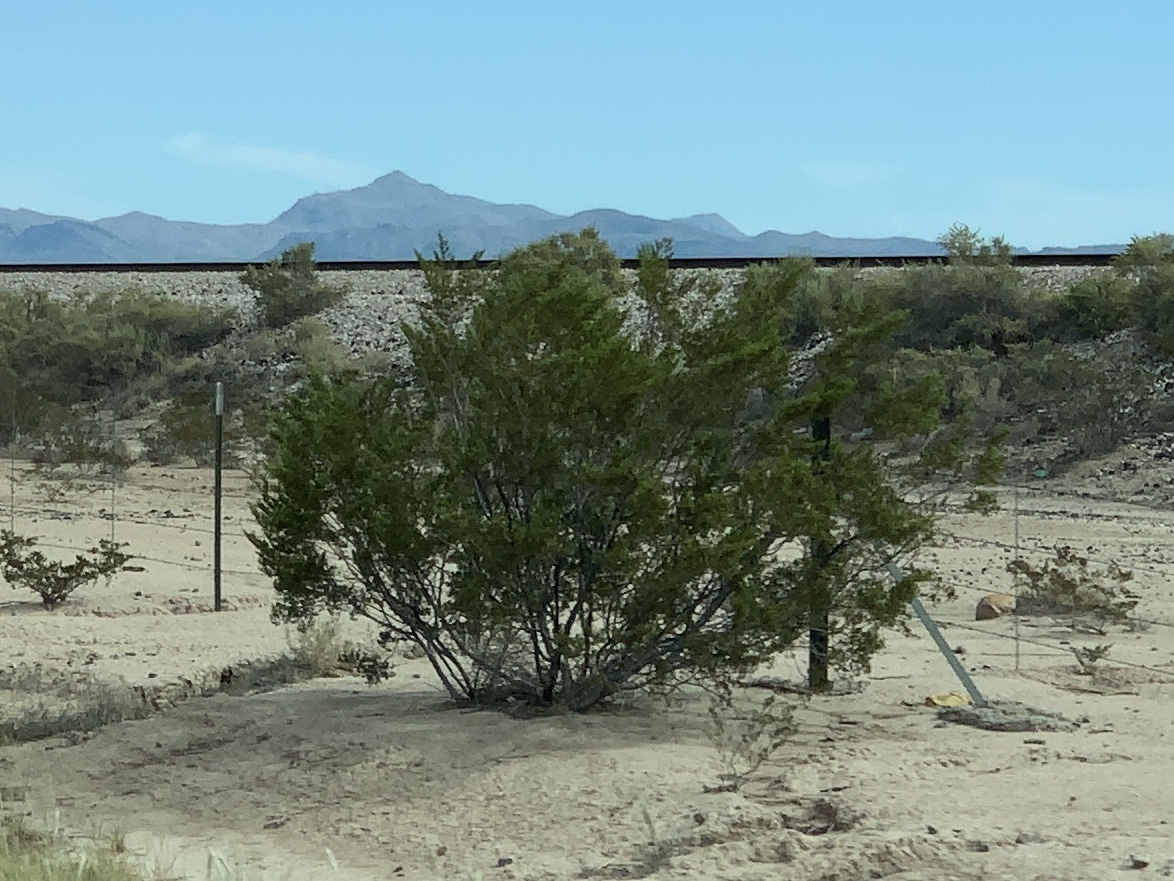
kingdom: Plantae
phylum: Tracheophyta
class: Magnoliopsida
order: Zygophyllales
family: Zygophyllaceae
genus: Larrea
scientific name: Larrea tridentata
